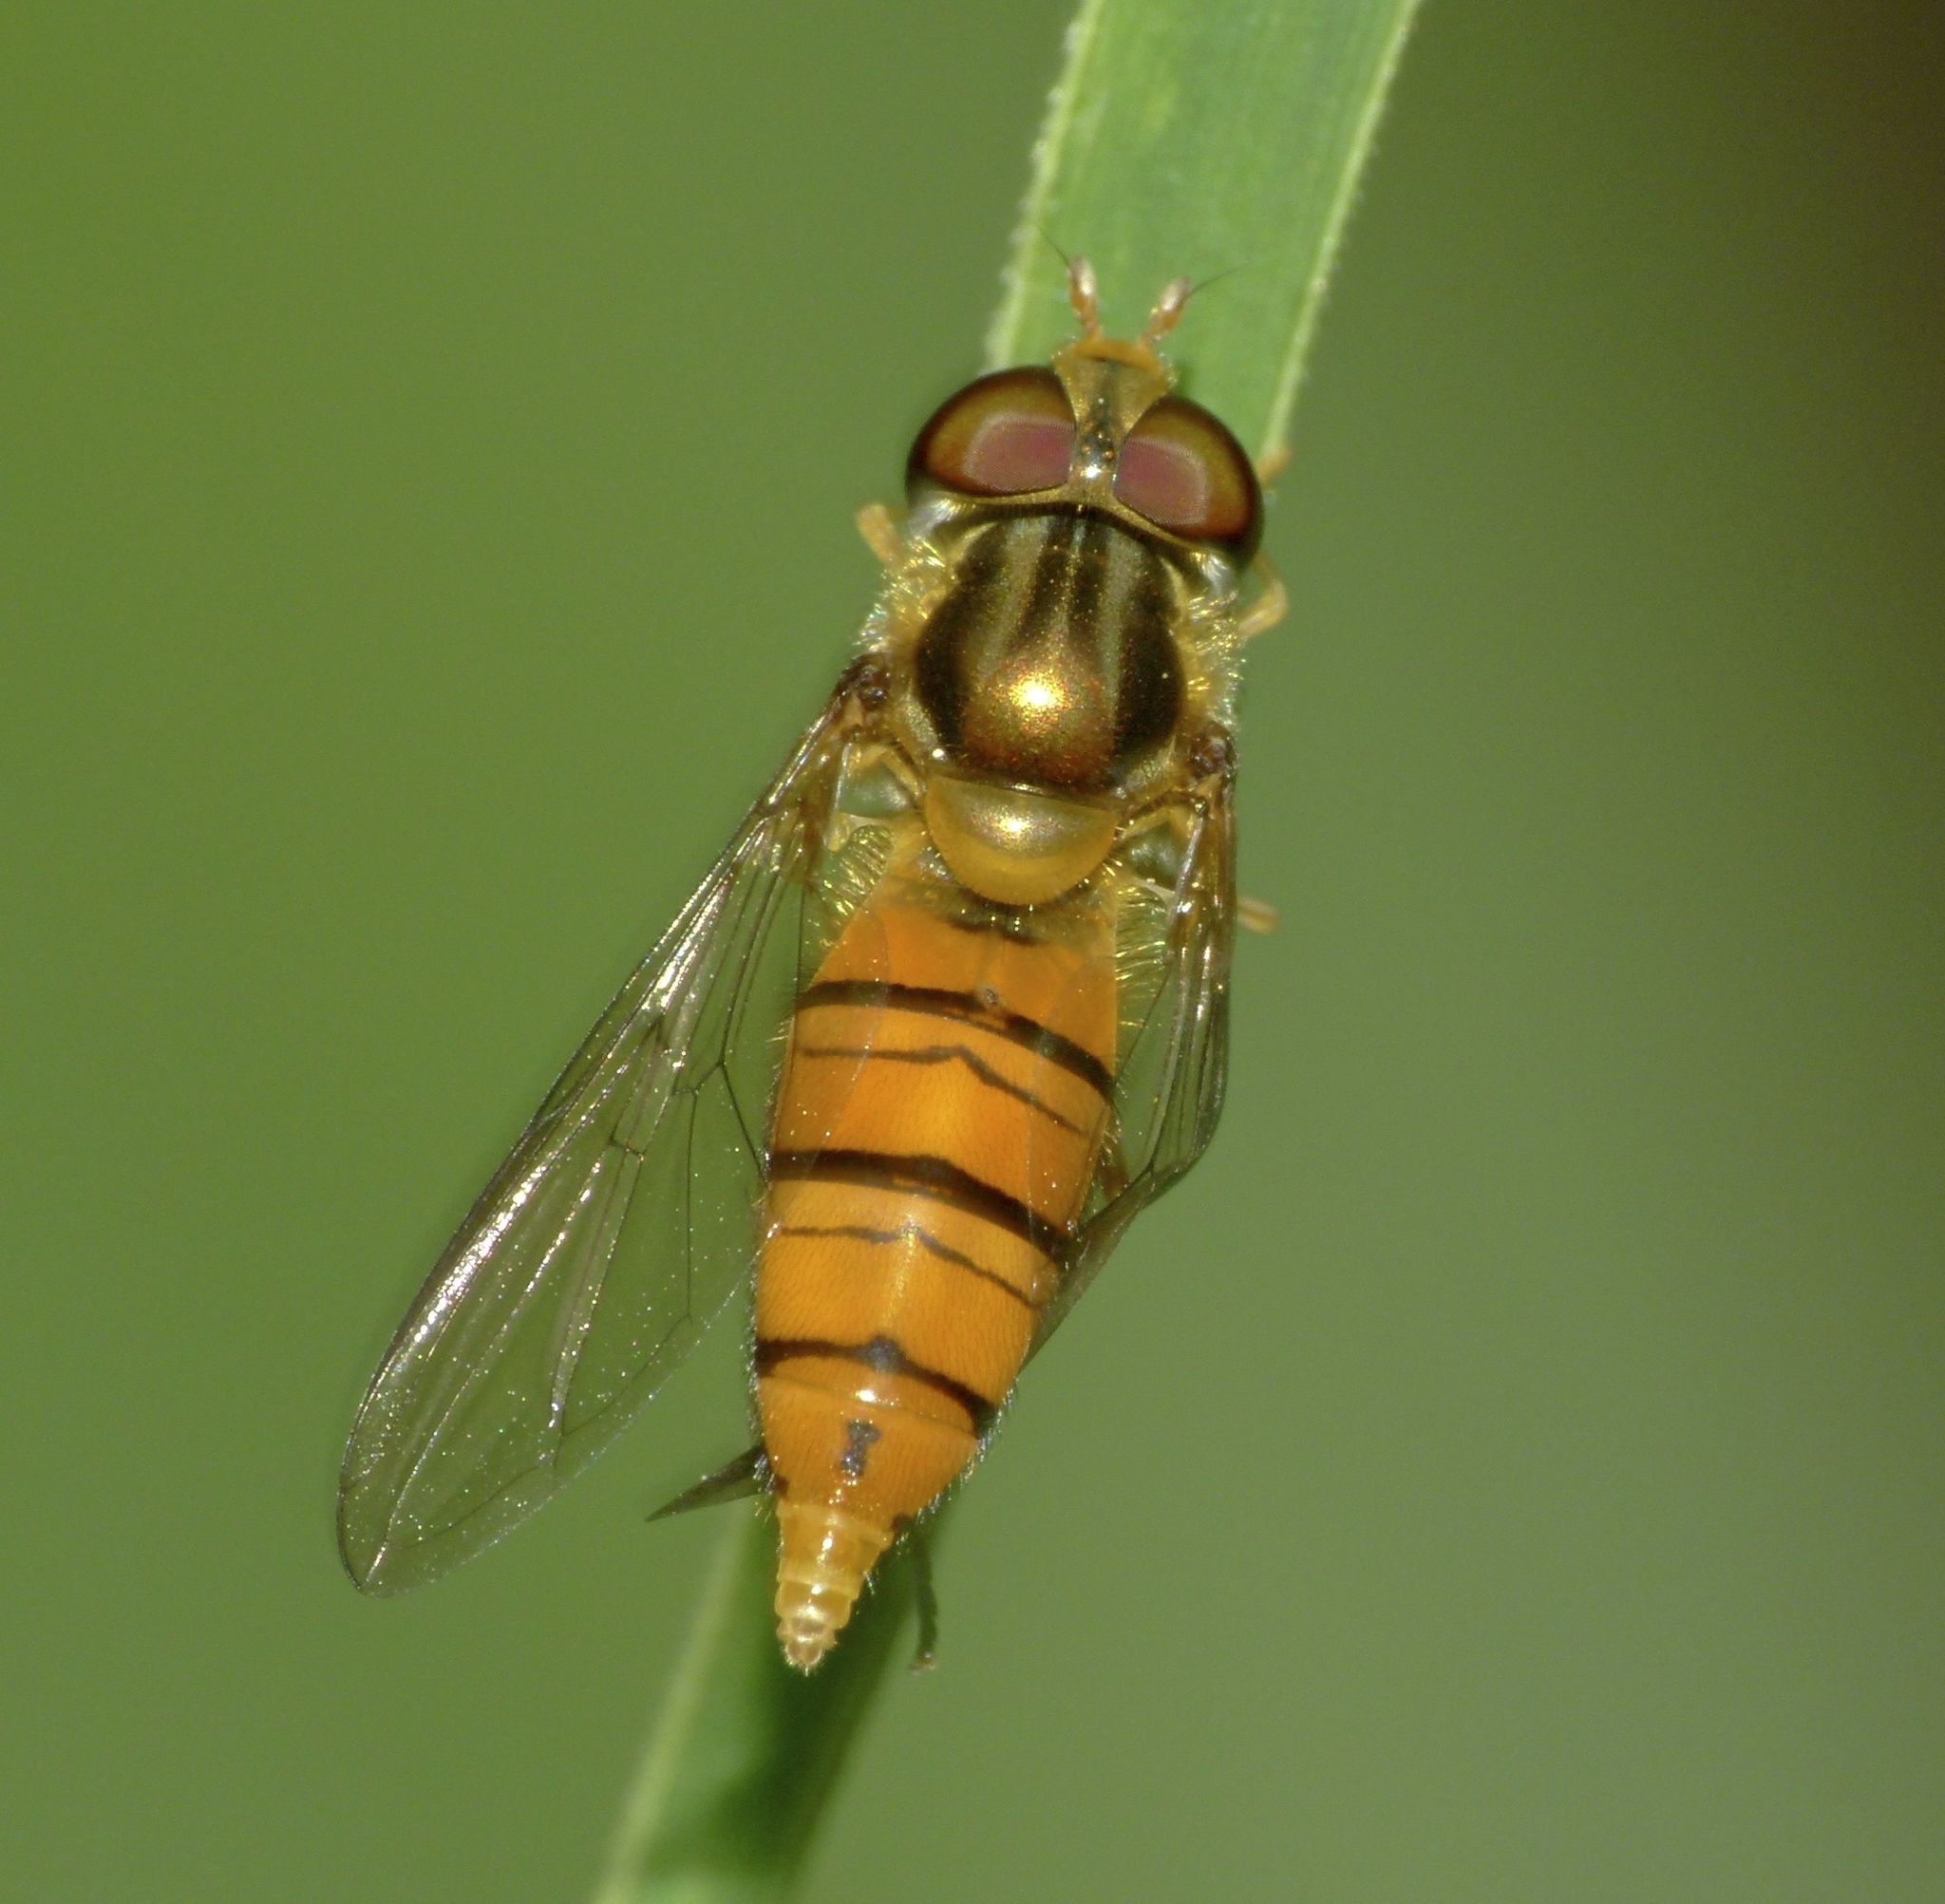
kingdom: Animalia
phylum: Arthropoda
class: Insecta
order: Diptera
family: Syrphidae
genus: Episyrphus
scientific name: Episyrphus viridaureus
